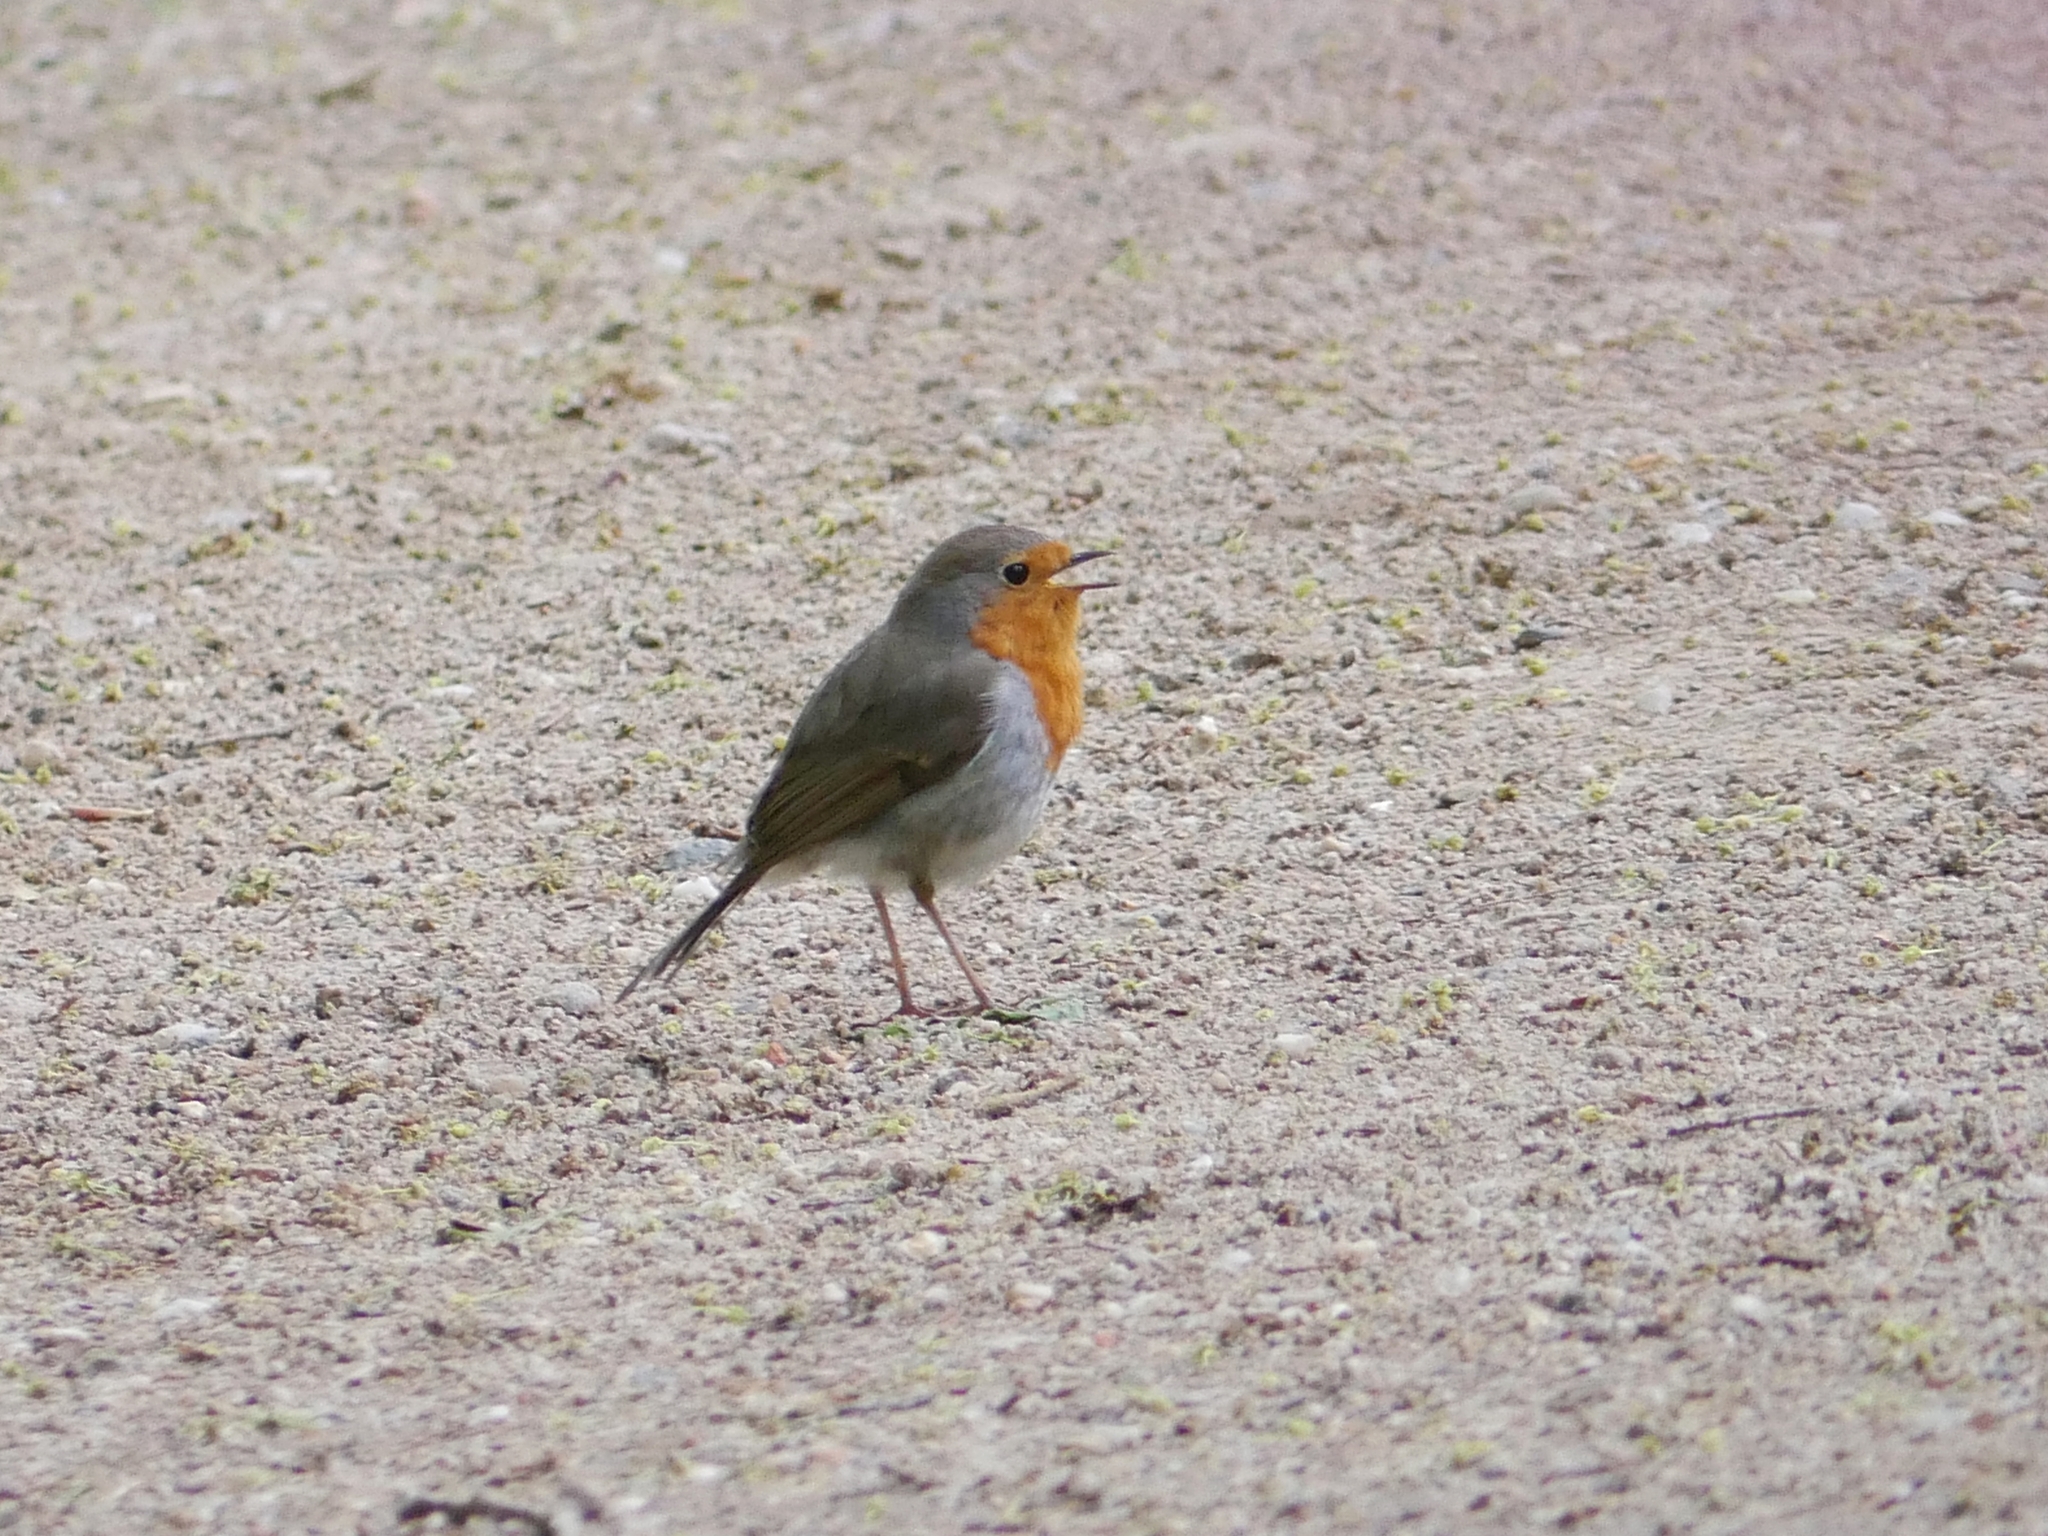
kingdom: Animalia
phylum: Chordata
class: Aves
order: Passeriformes
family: Muscicapidae
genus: Erithacus
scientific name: Erithacus rubecula
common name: European robin
